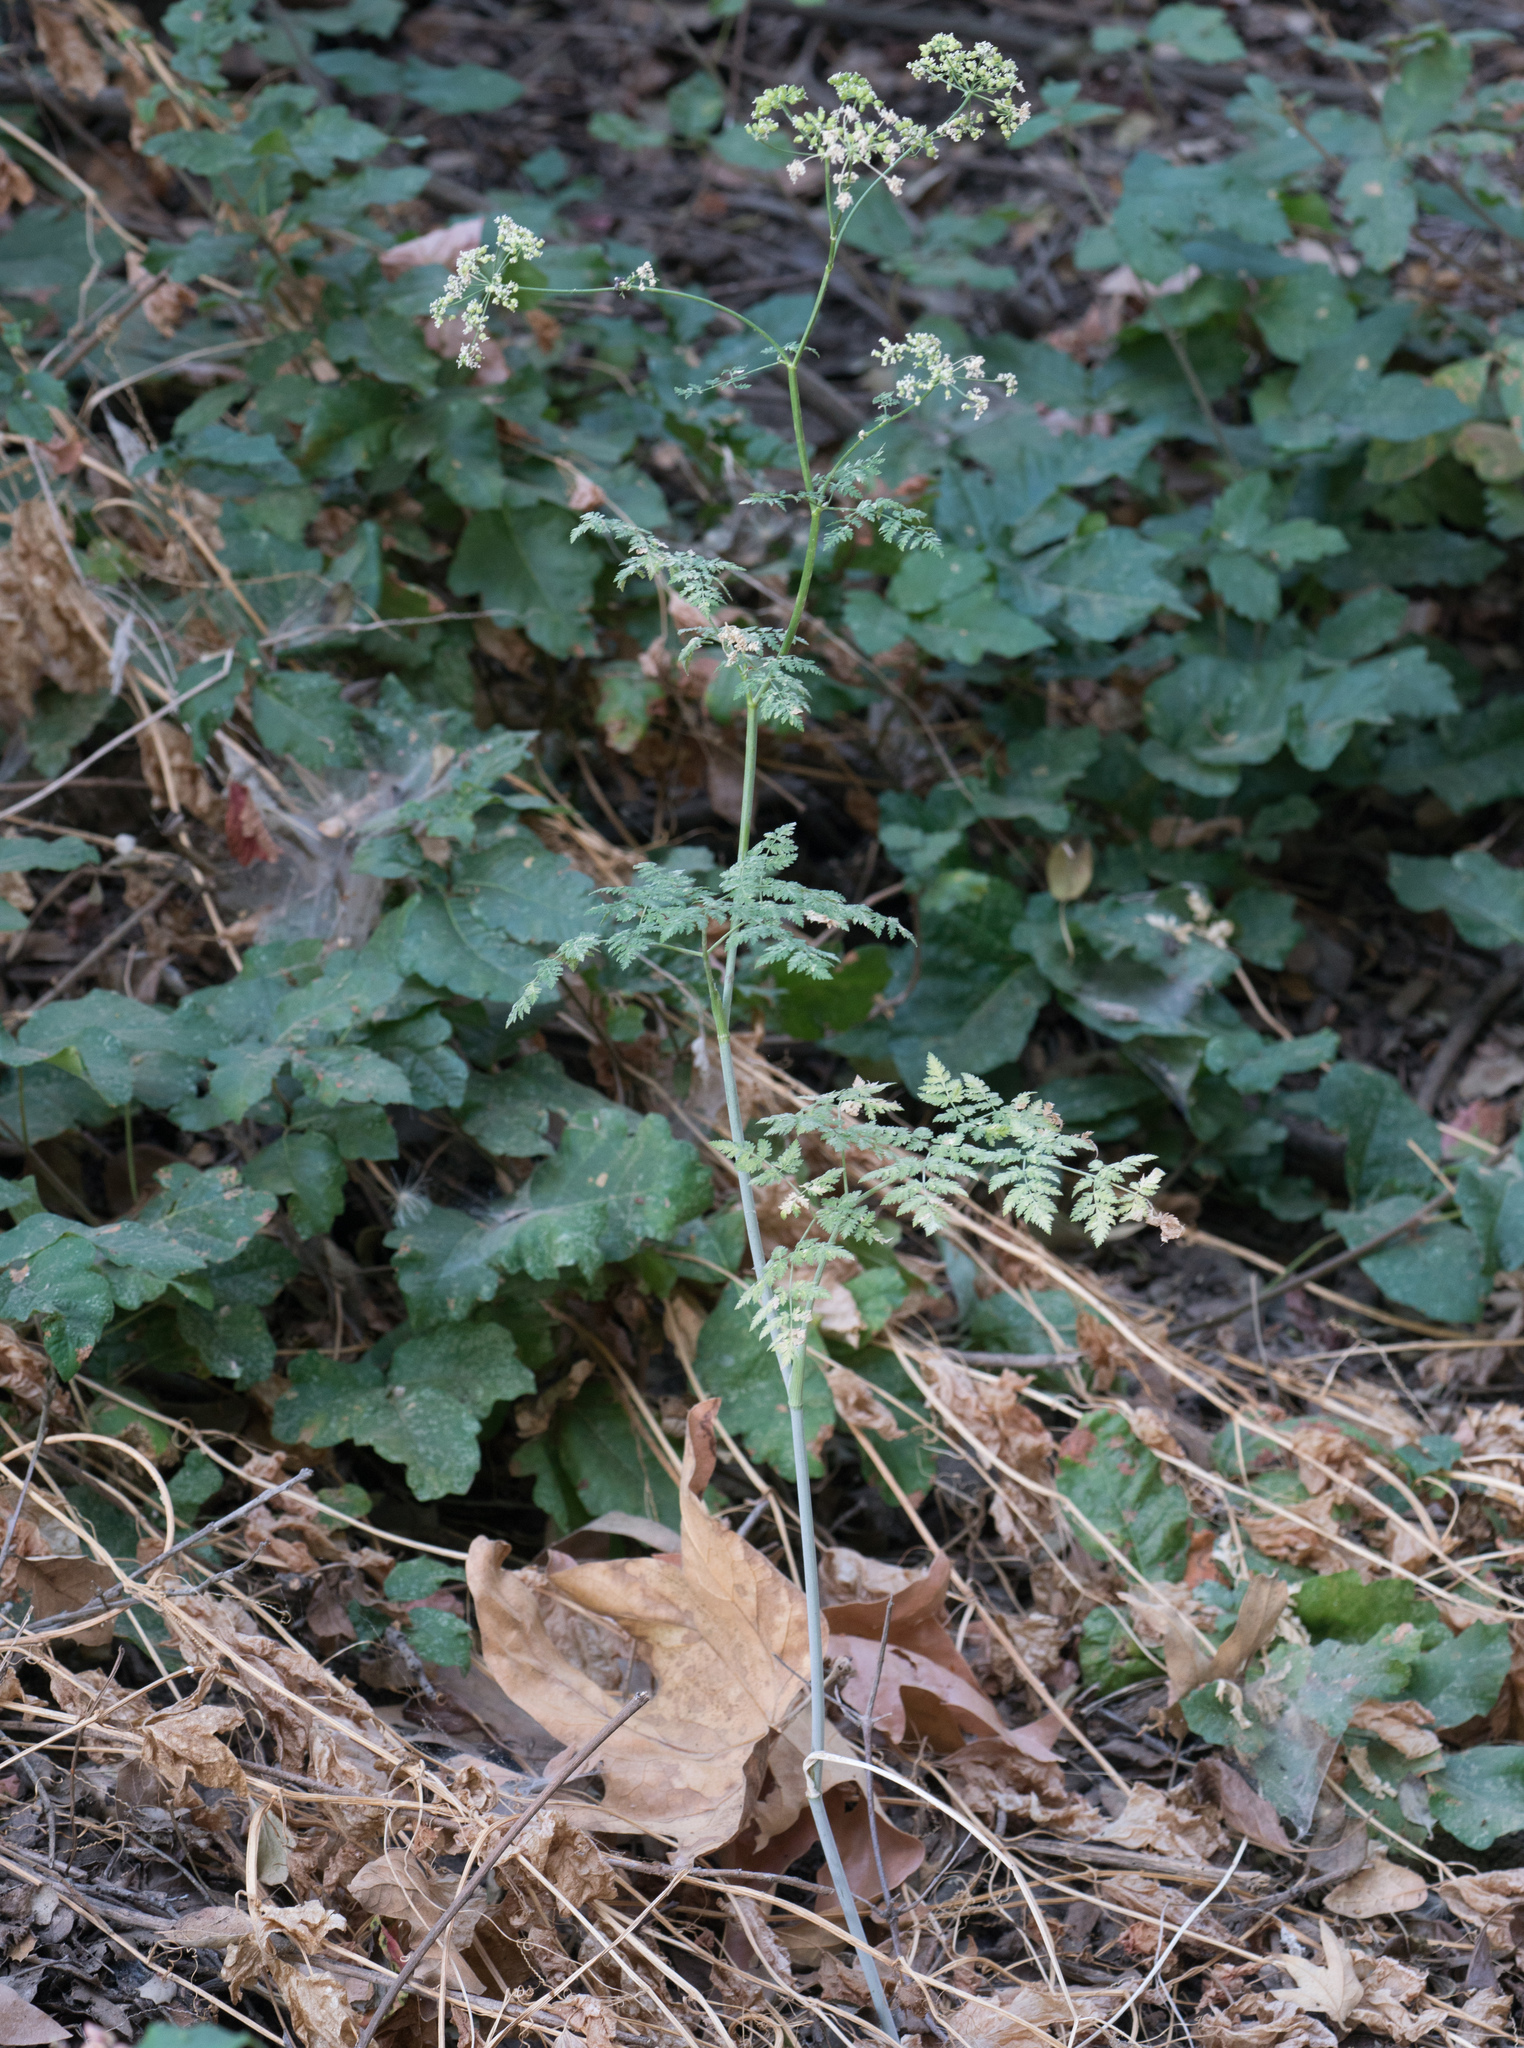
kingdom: Plantae
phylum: Tracheophyta
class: Magnoliopsida
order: Apiales
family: Apiaceae
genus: Conium
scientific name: Conium maculatum
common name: Hemlock
